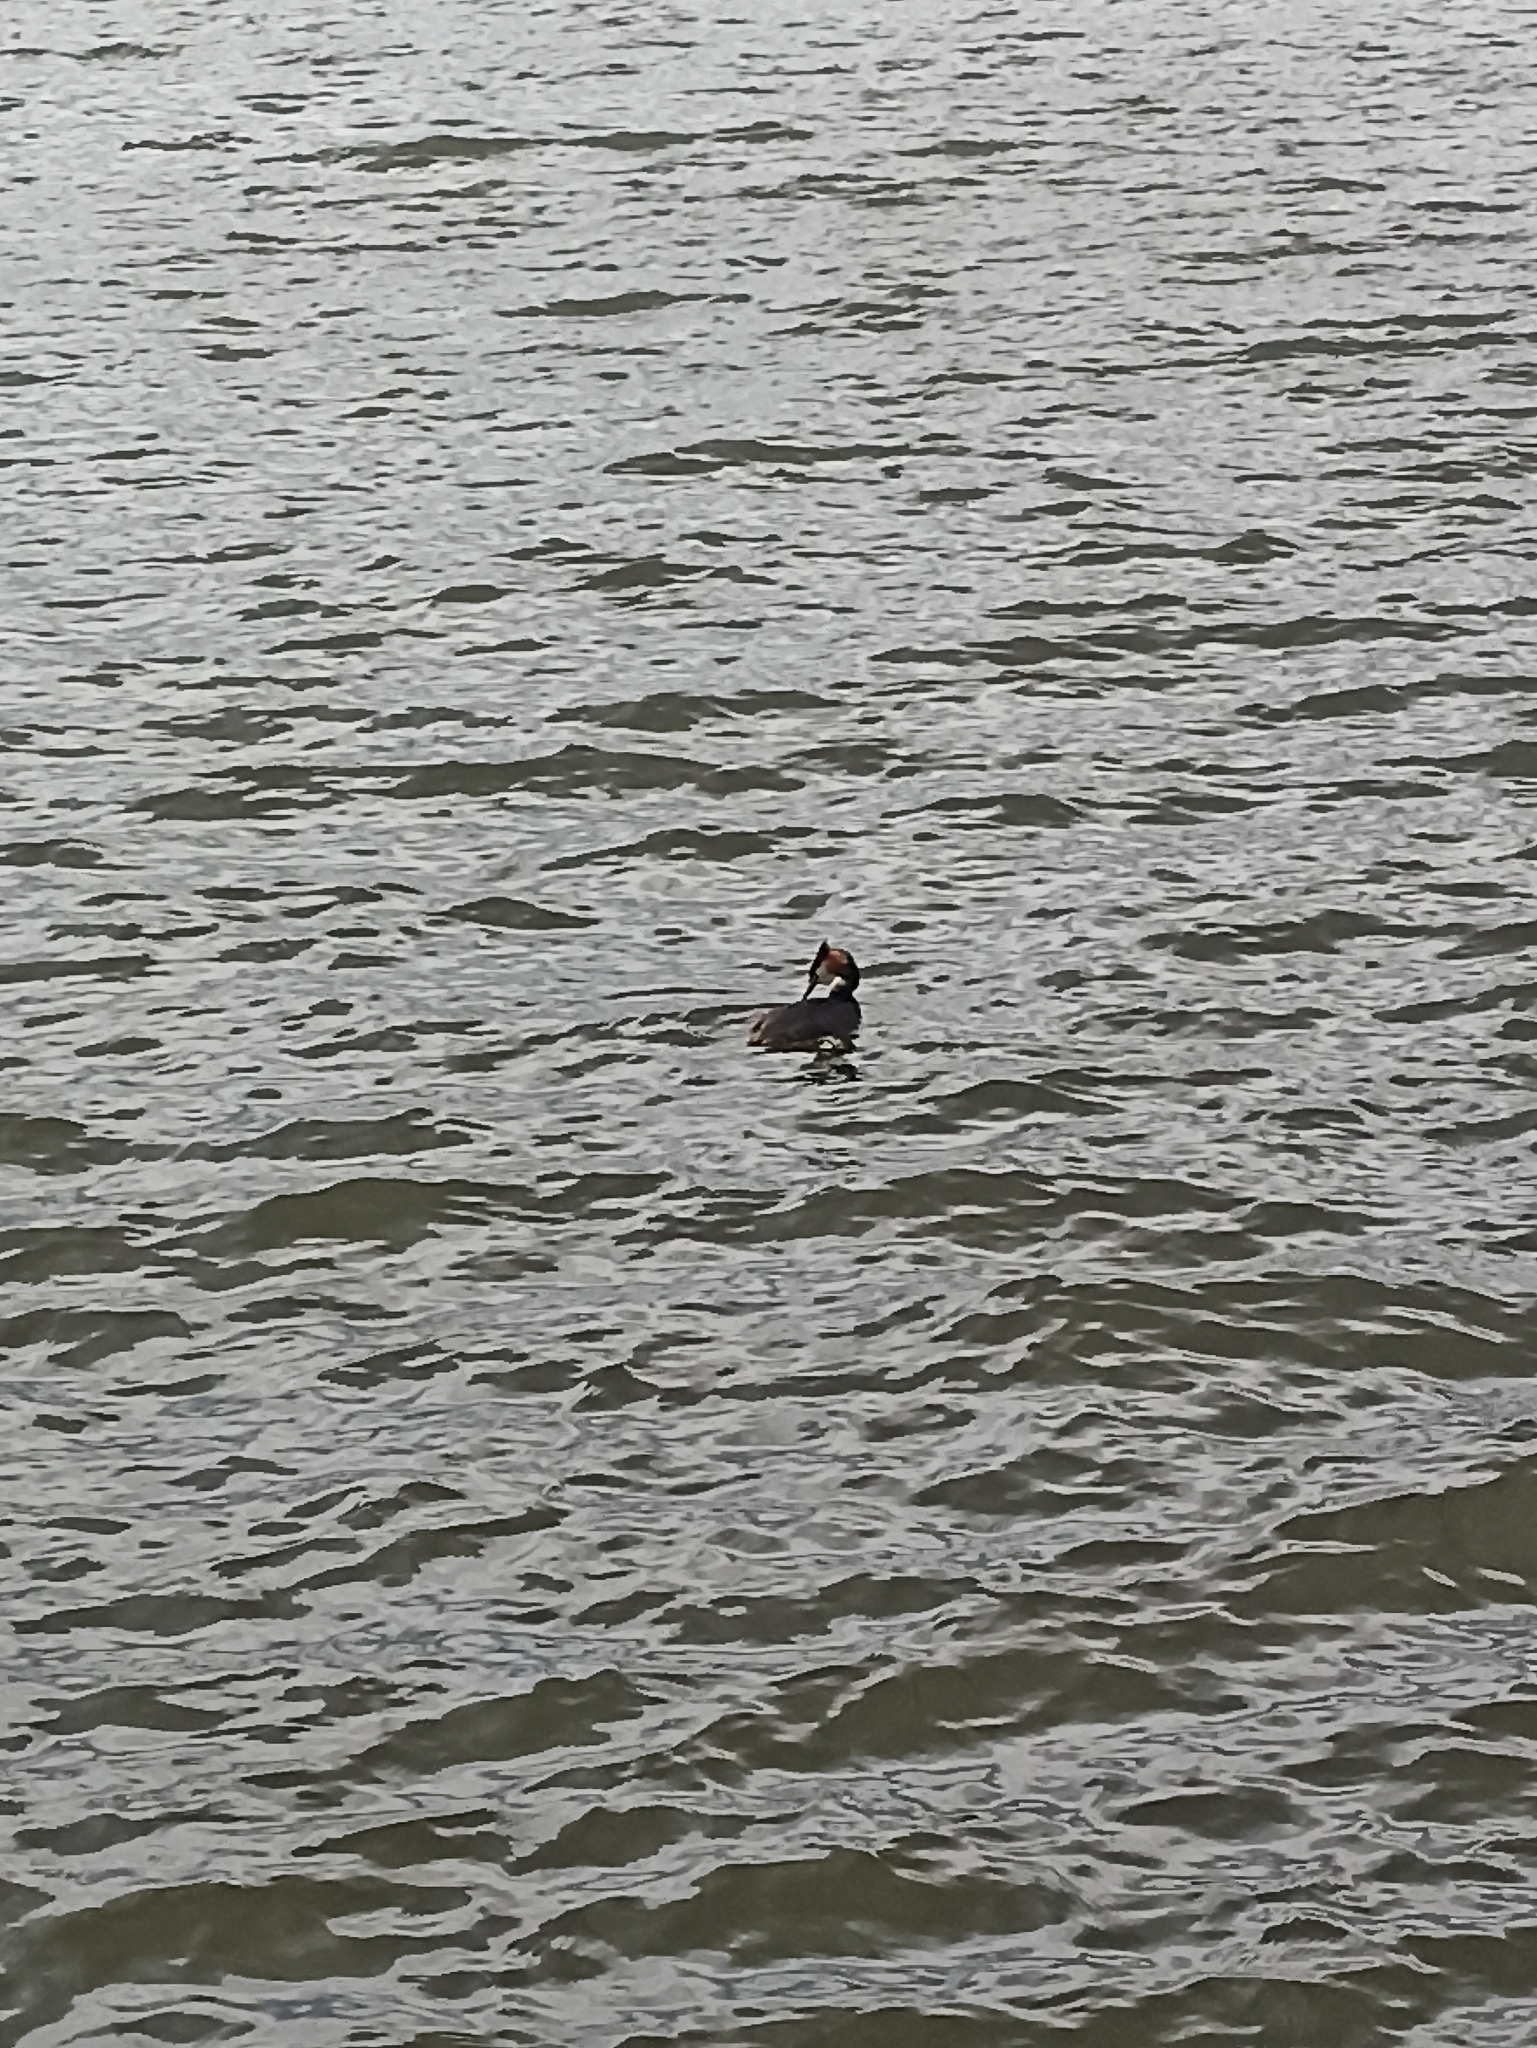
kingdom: Animalia
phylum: Chordata
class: Aves
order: Podicipediformes
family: Podicipedidae
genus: Podiceps
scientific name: Podiceps cristatus
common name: Great crested grebe
